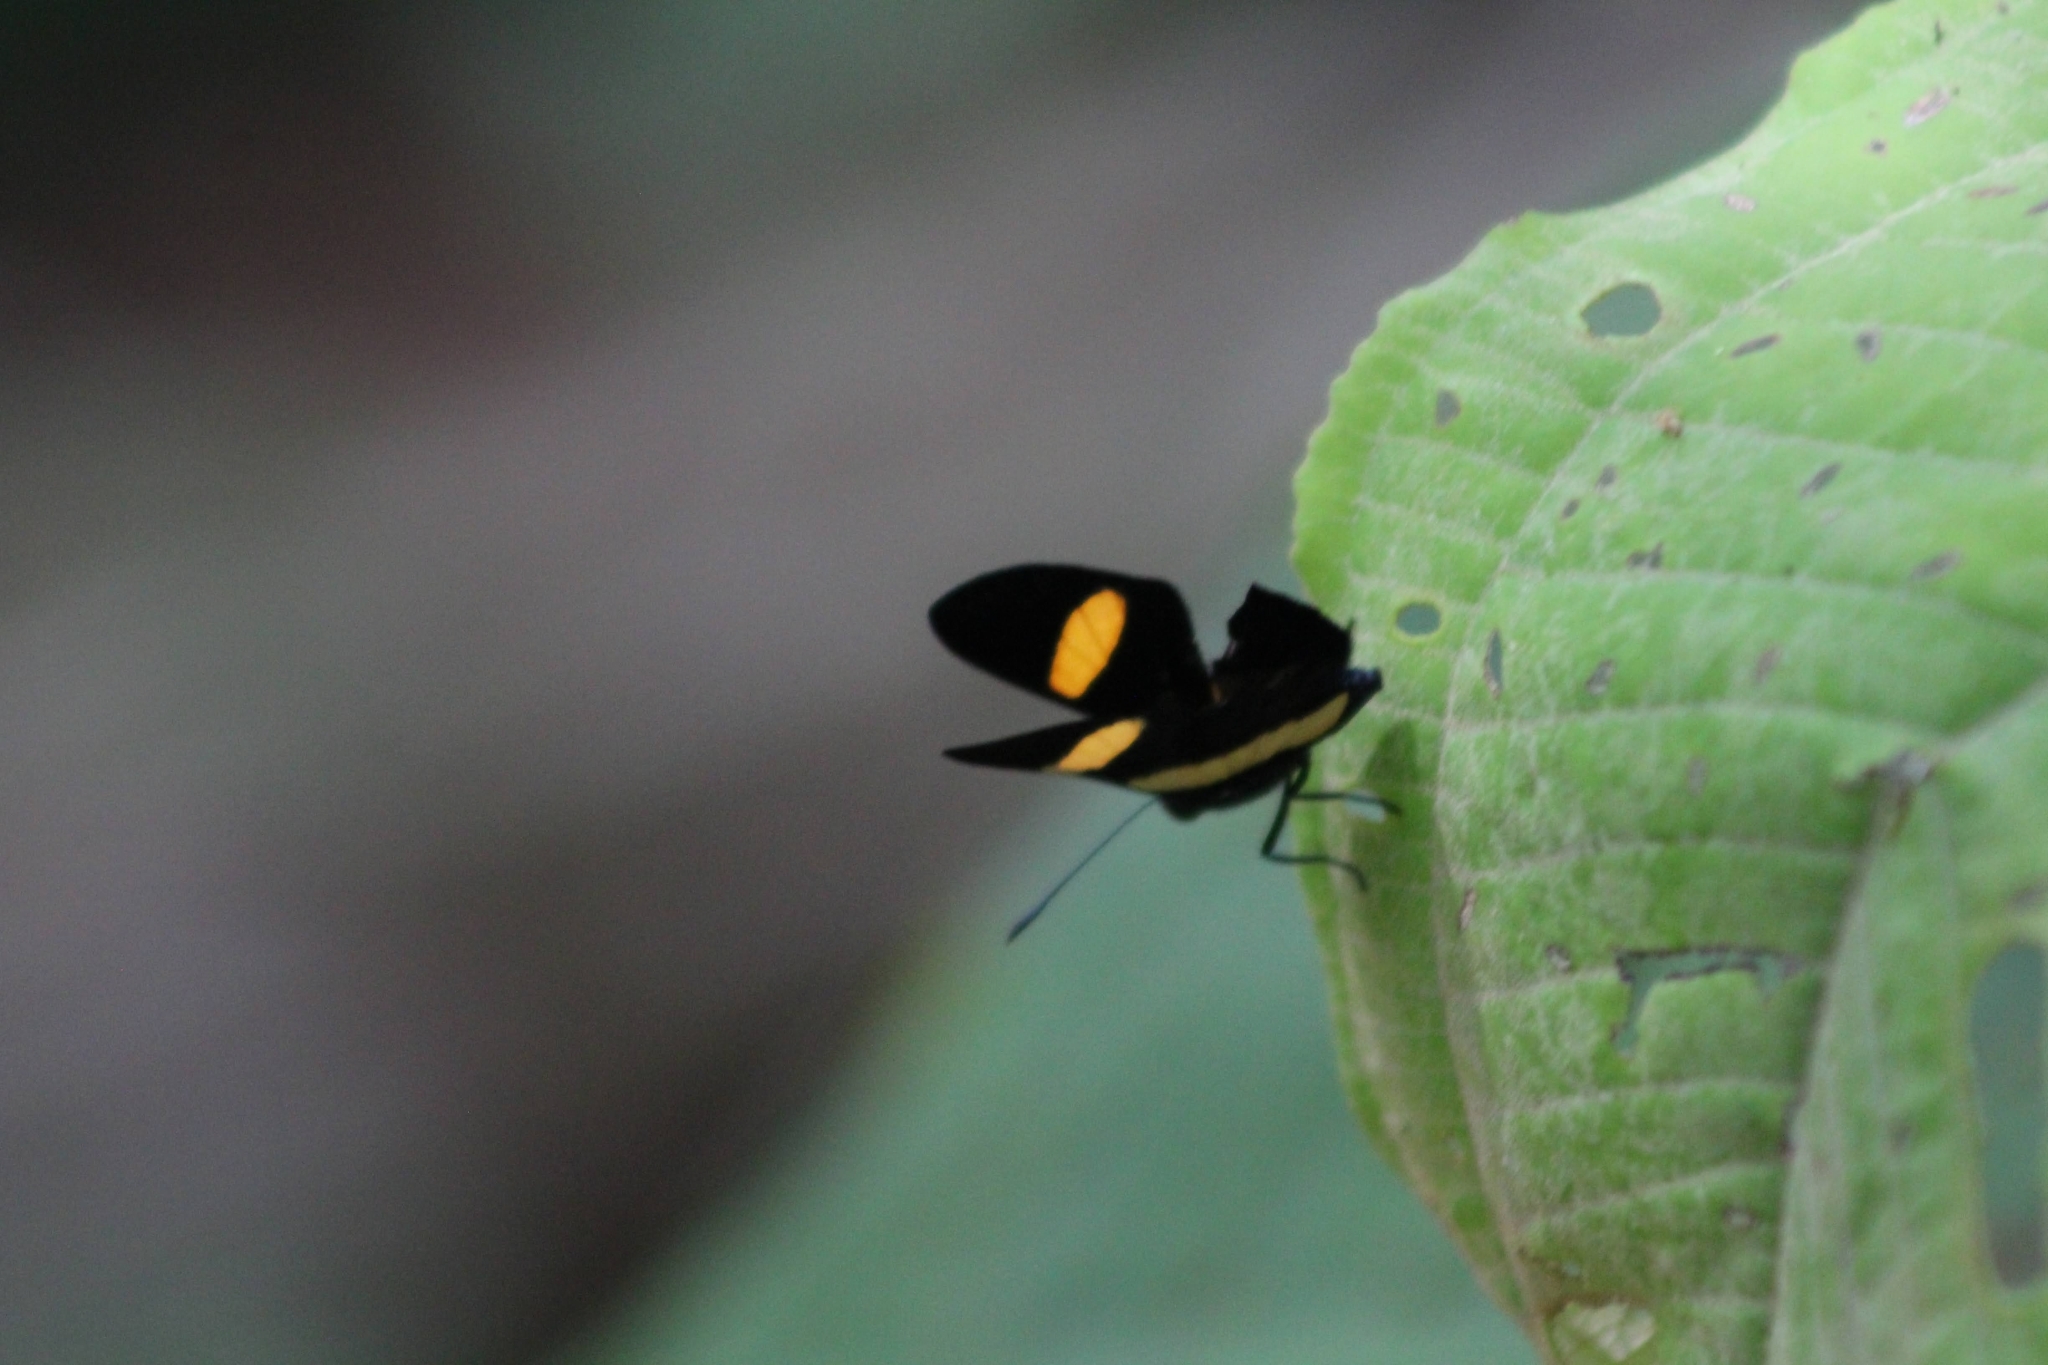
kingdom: Animalia
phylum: Arthropoda
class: Insecta
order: Lepidoptera
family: Lycaenidae
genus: Melanis
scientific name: Melanis agyrtus
